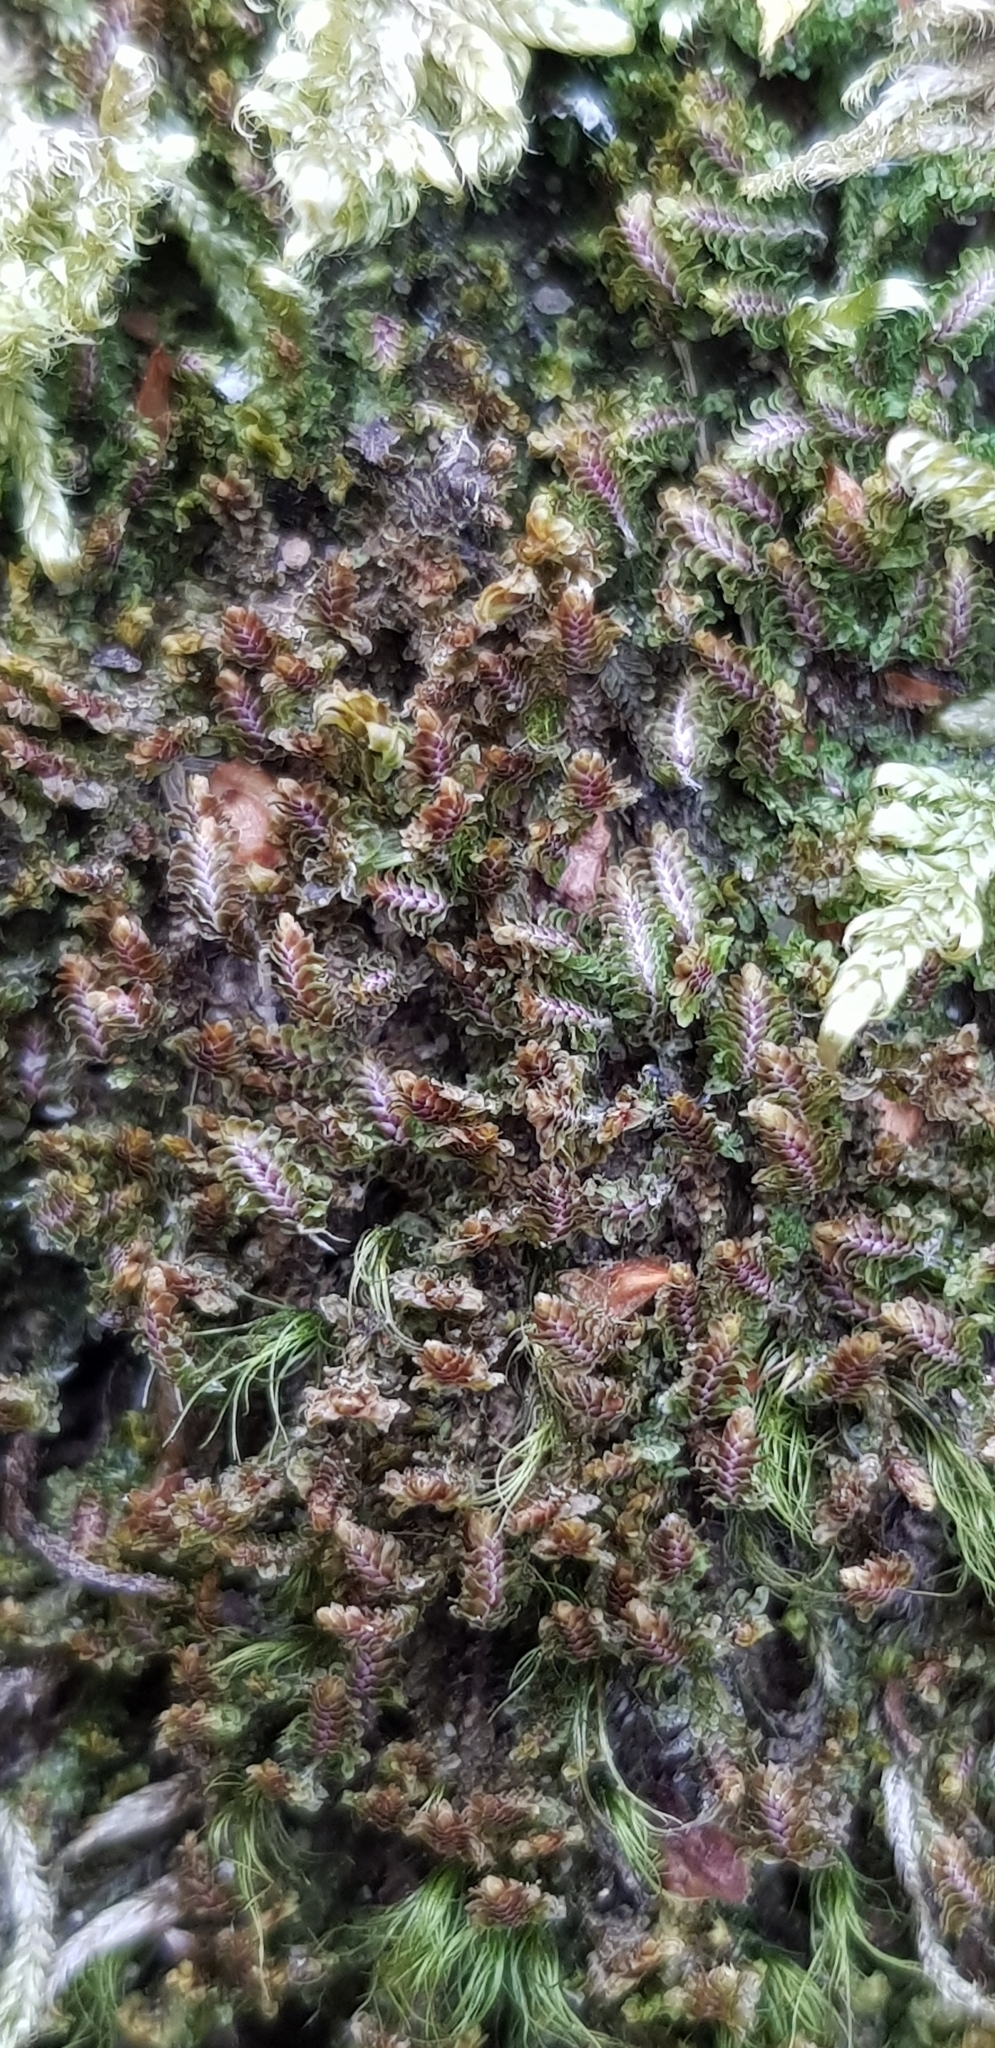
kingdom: Plantae
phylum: Marchantiophyta
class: Jungermanniopsida
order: Jungermanniales
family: Scapaniaceae
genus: Diplophyllum
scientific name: Diplophyllum albicans
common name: White earwort
